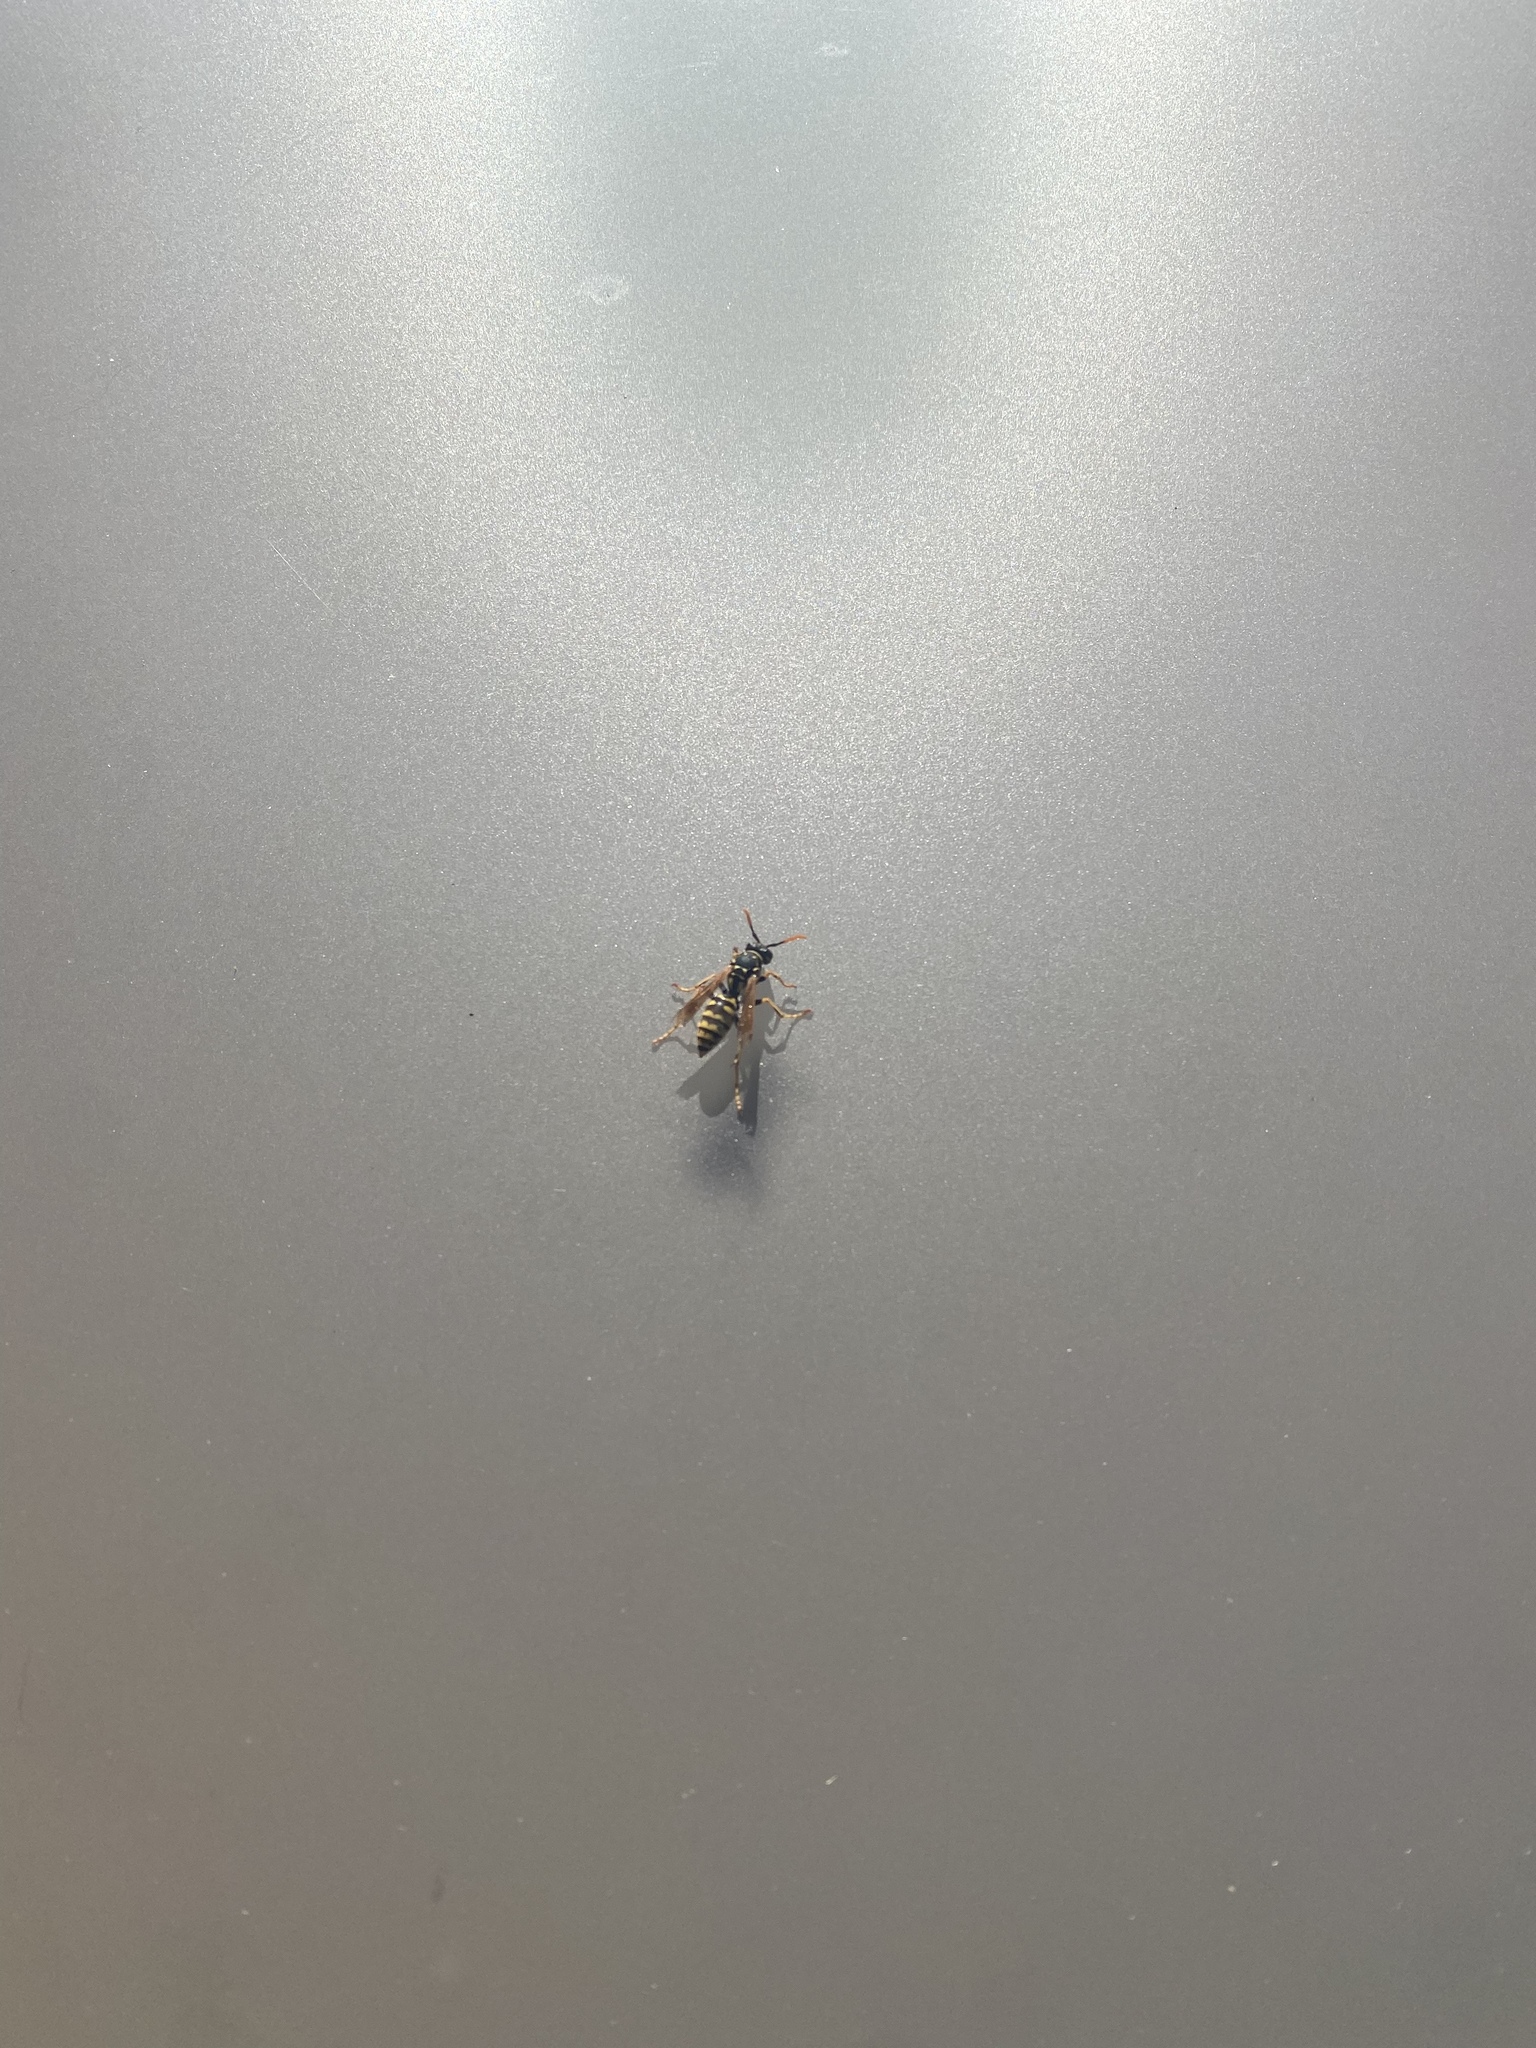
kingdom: Animalia
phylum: Arthropoda
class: Insecta
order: Hymenoptera
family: Eumenidae
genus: Polistes
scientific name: Polistes dominula
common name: Paper wasp
